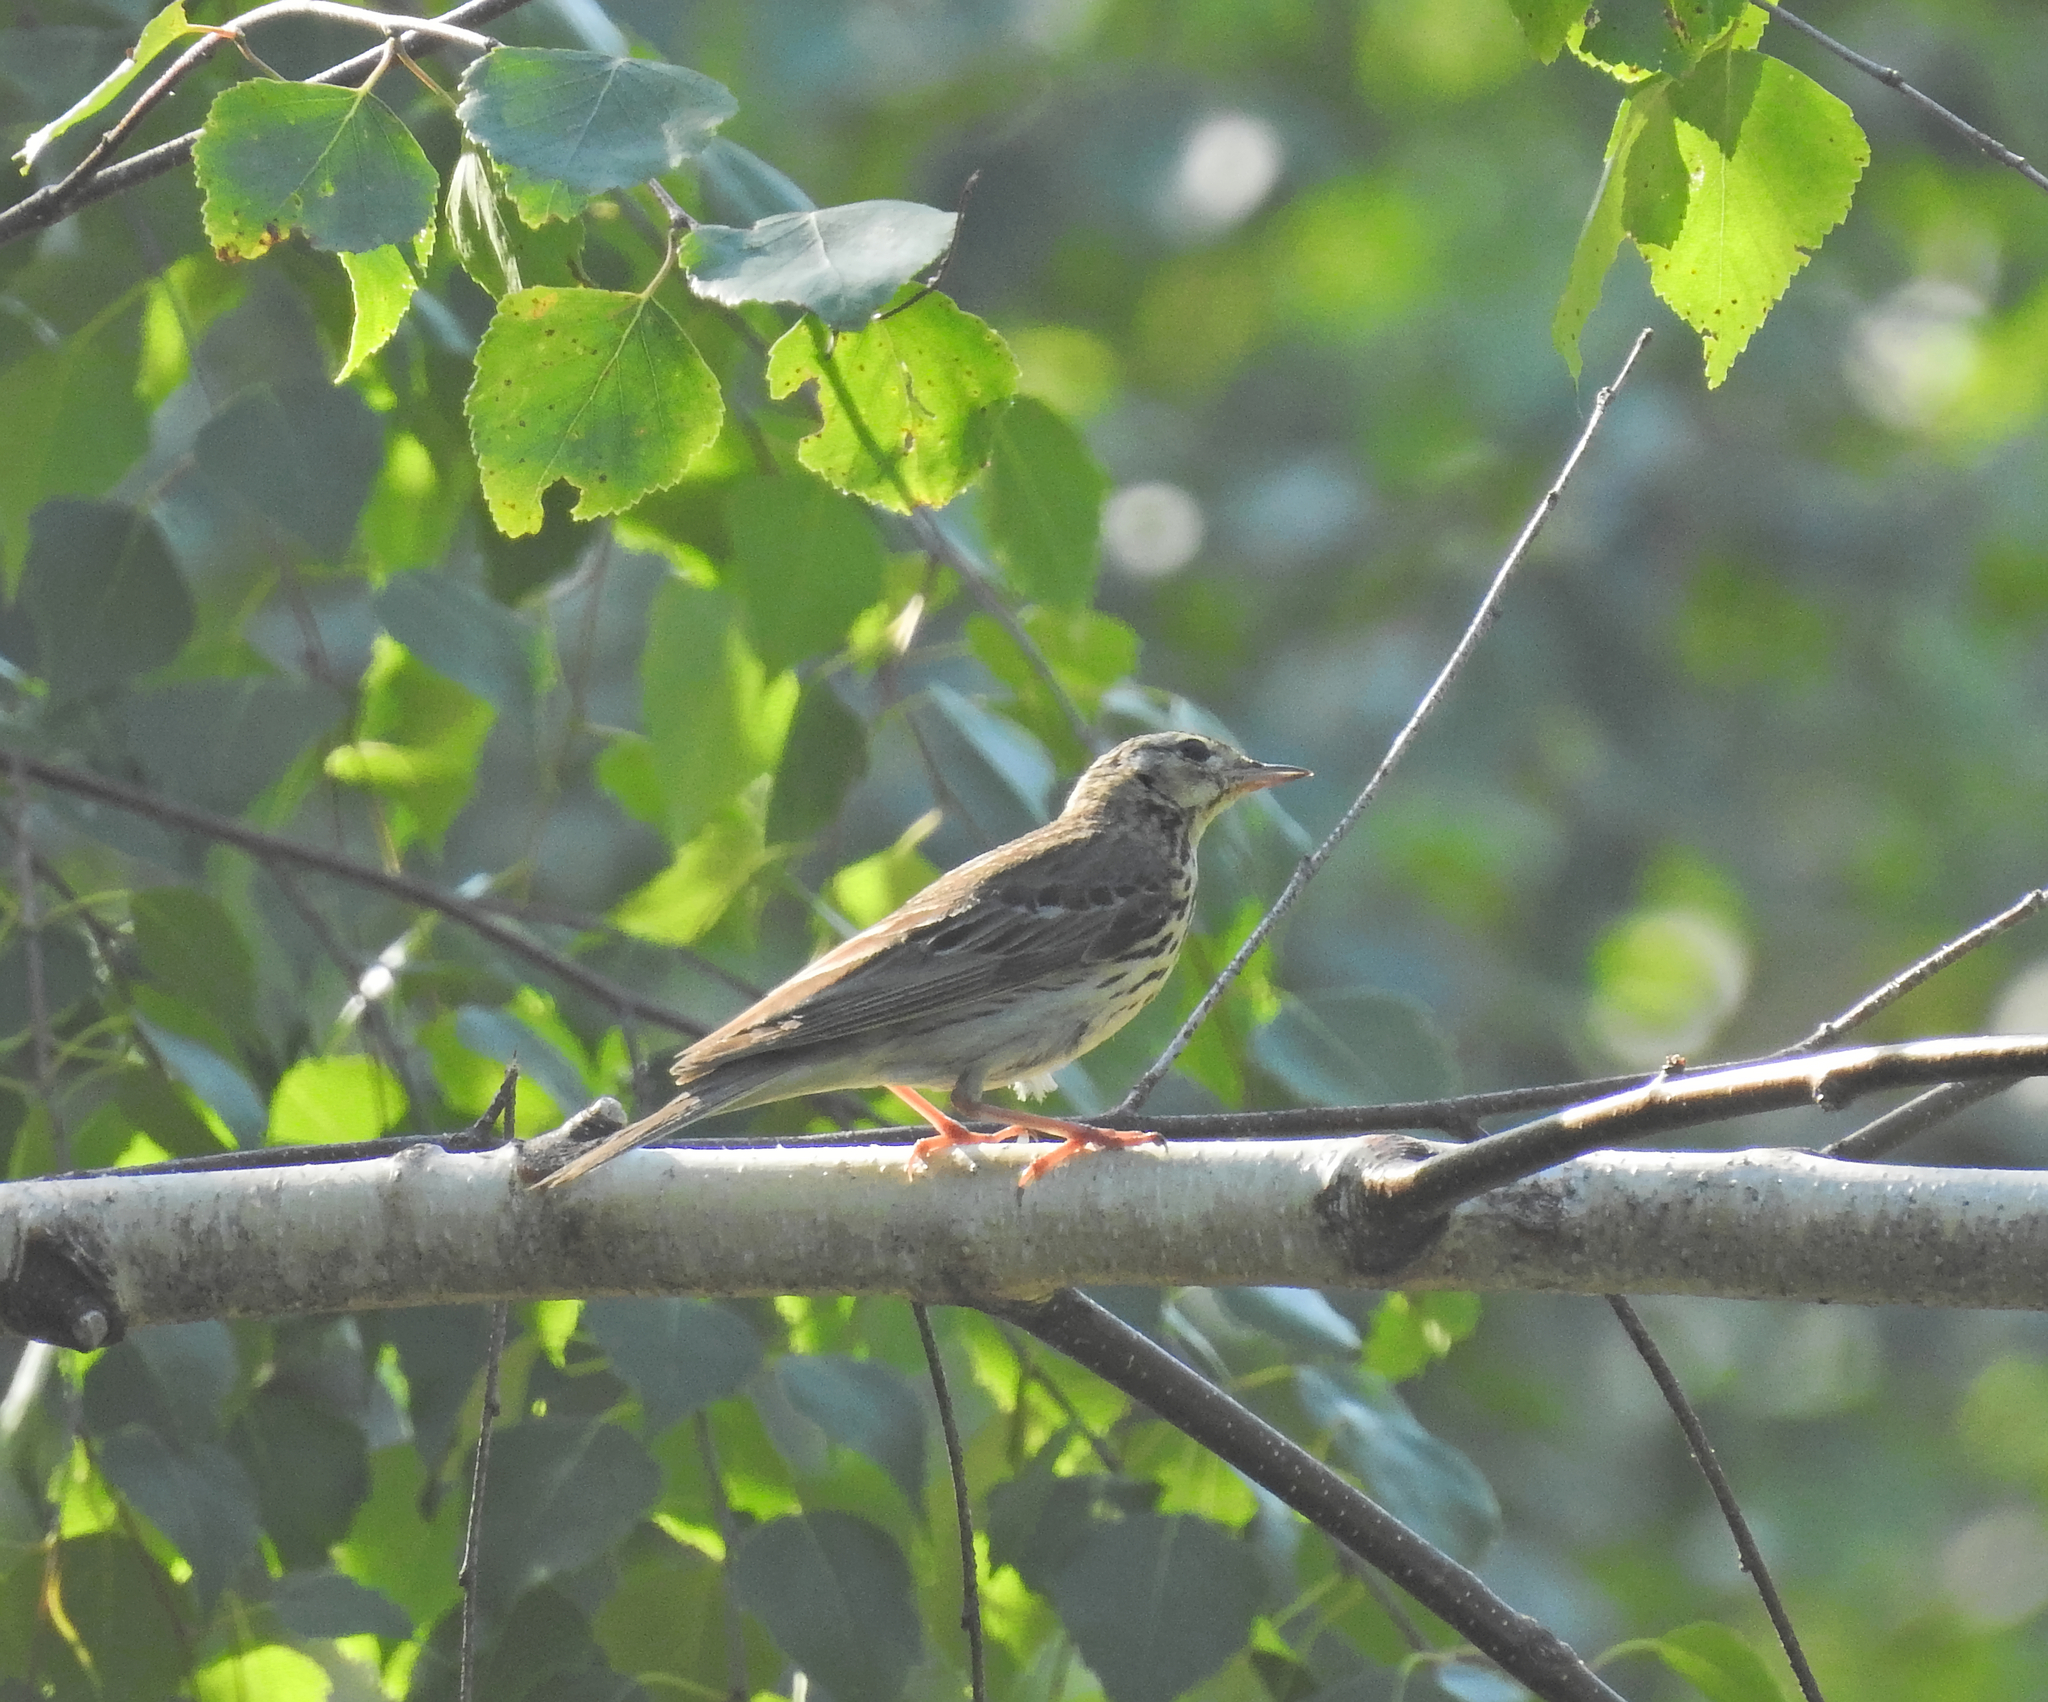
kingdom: Animalia
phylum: Chordata
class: Aves
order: Passeriformes
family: Motacillidae
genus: Anthus
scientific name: Anthus trivialis
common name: Tree pipit
